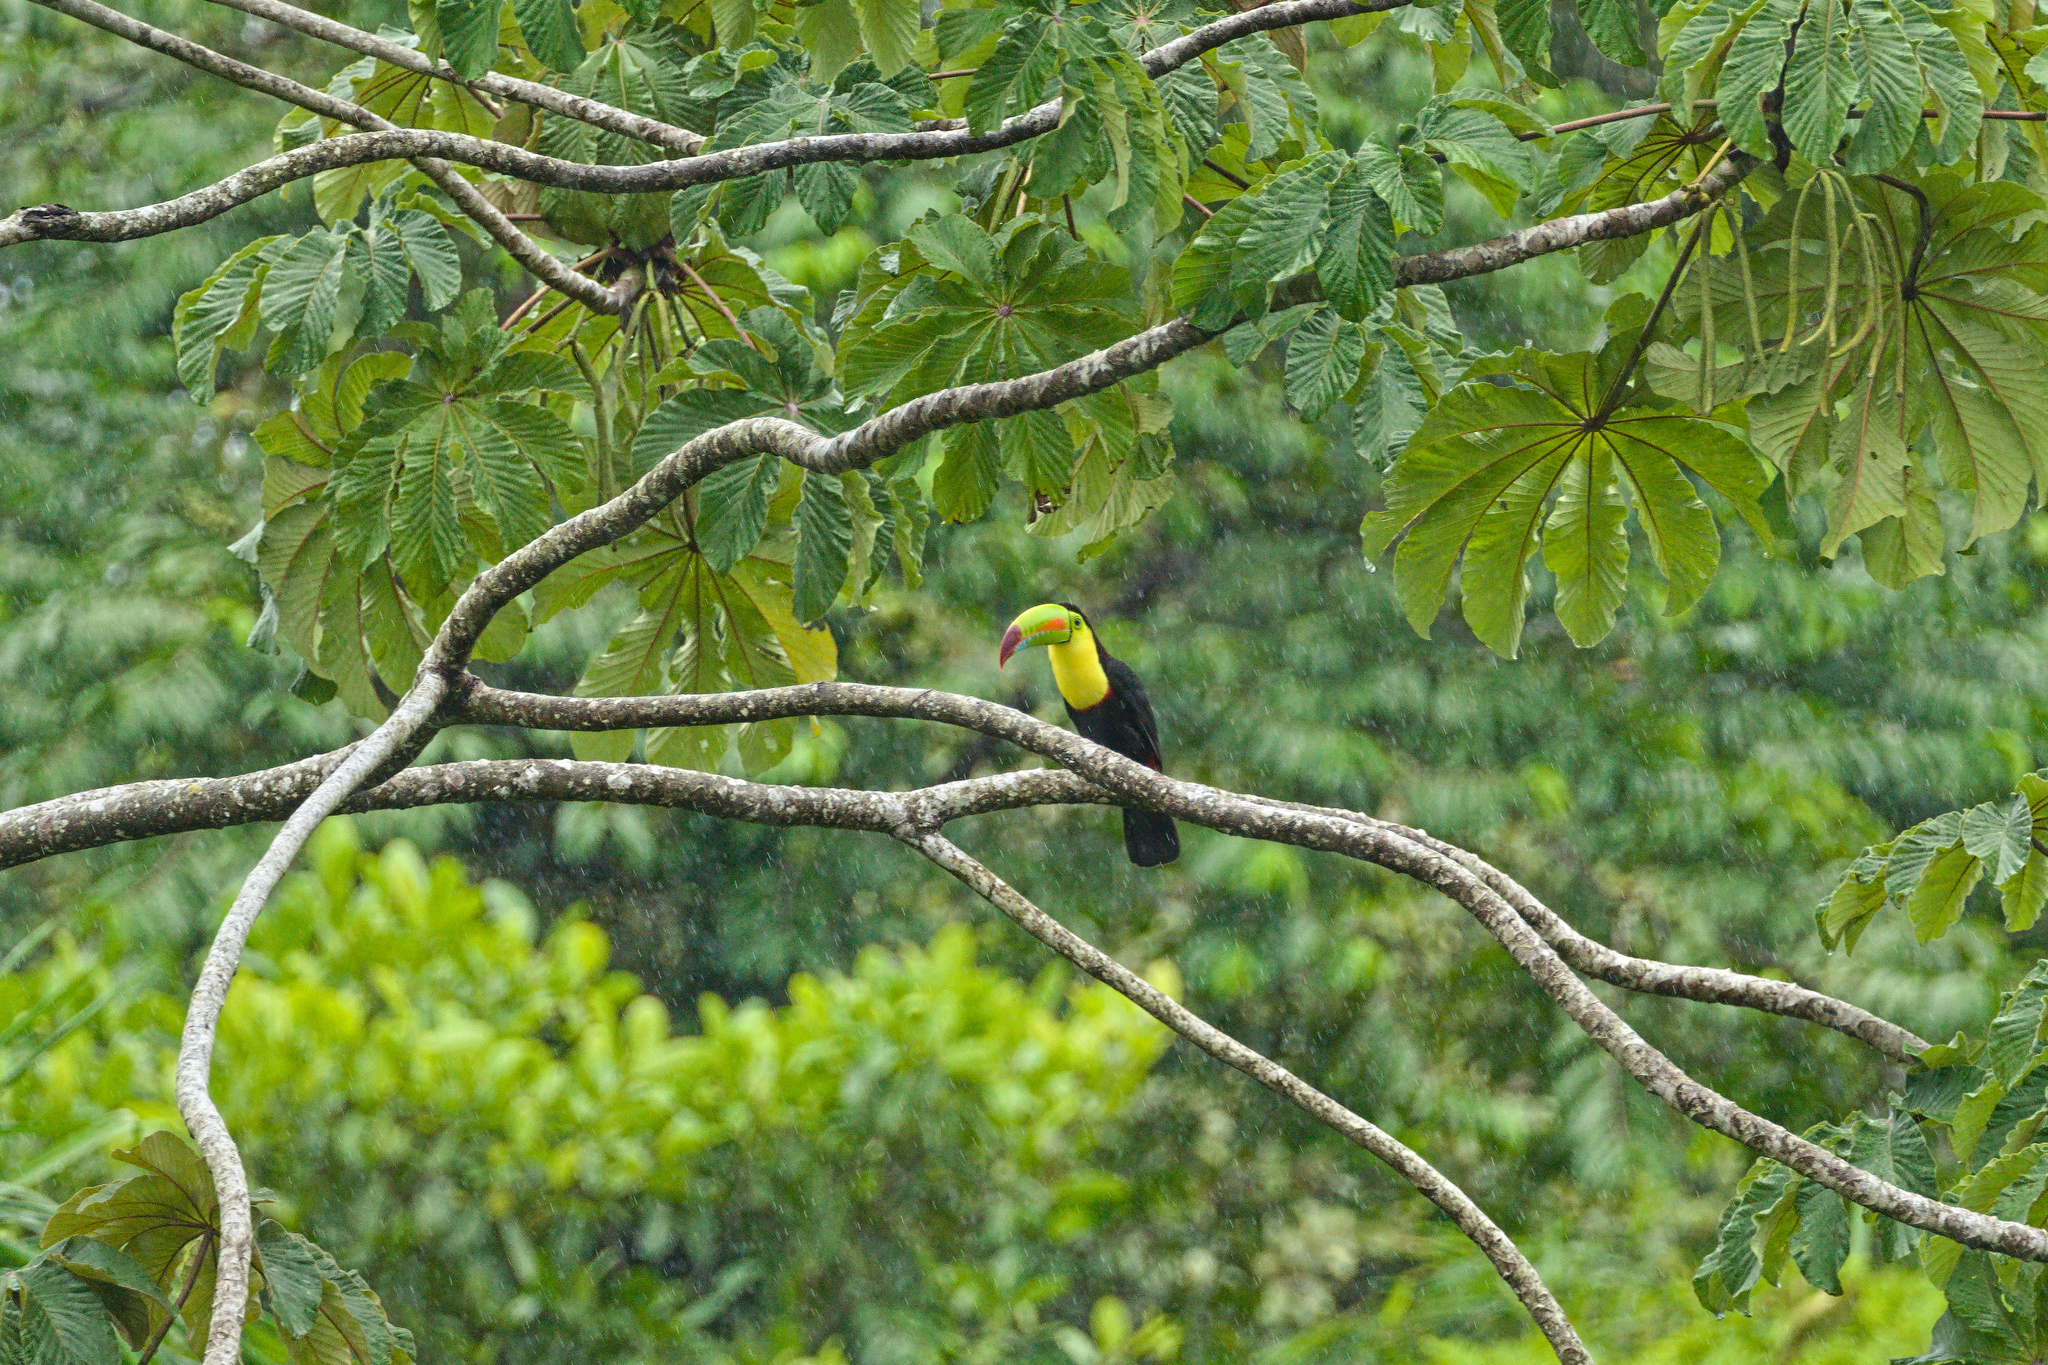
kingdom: Animalia
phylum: Chordata
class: Aves
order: Piciformes
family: Ramphastidae
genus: Ramphastos
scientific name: Ramphastos sulfuratus
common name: Keel-billed toucan
